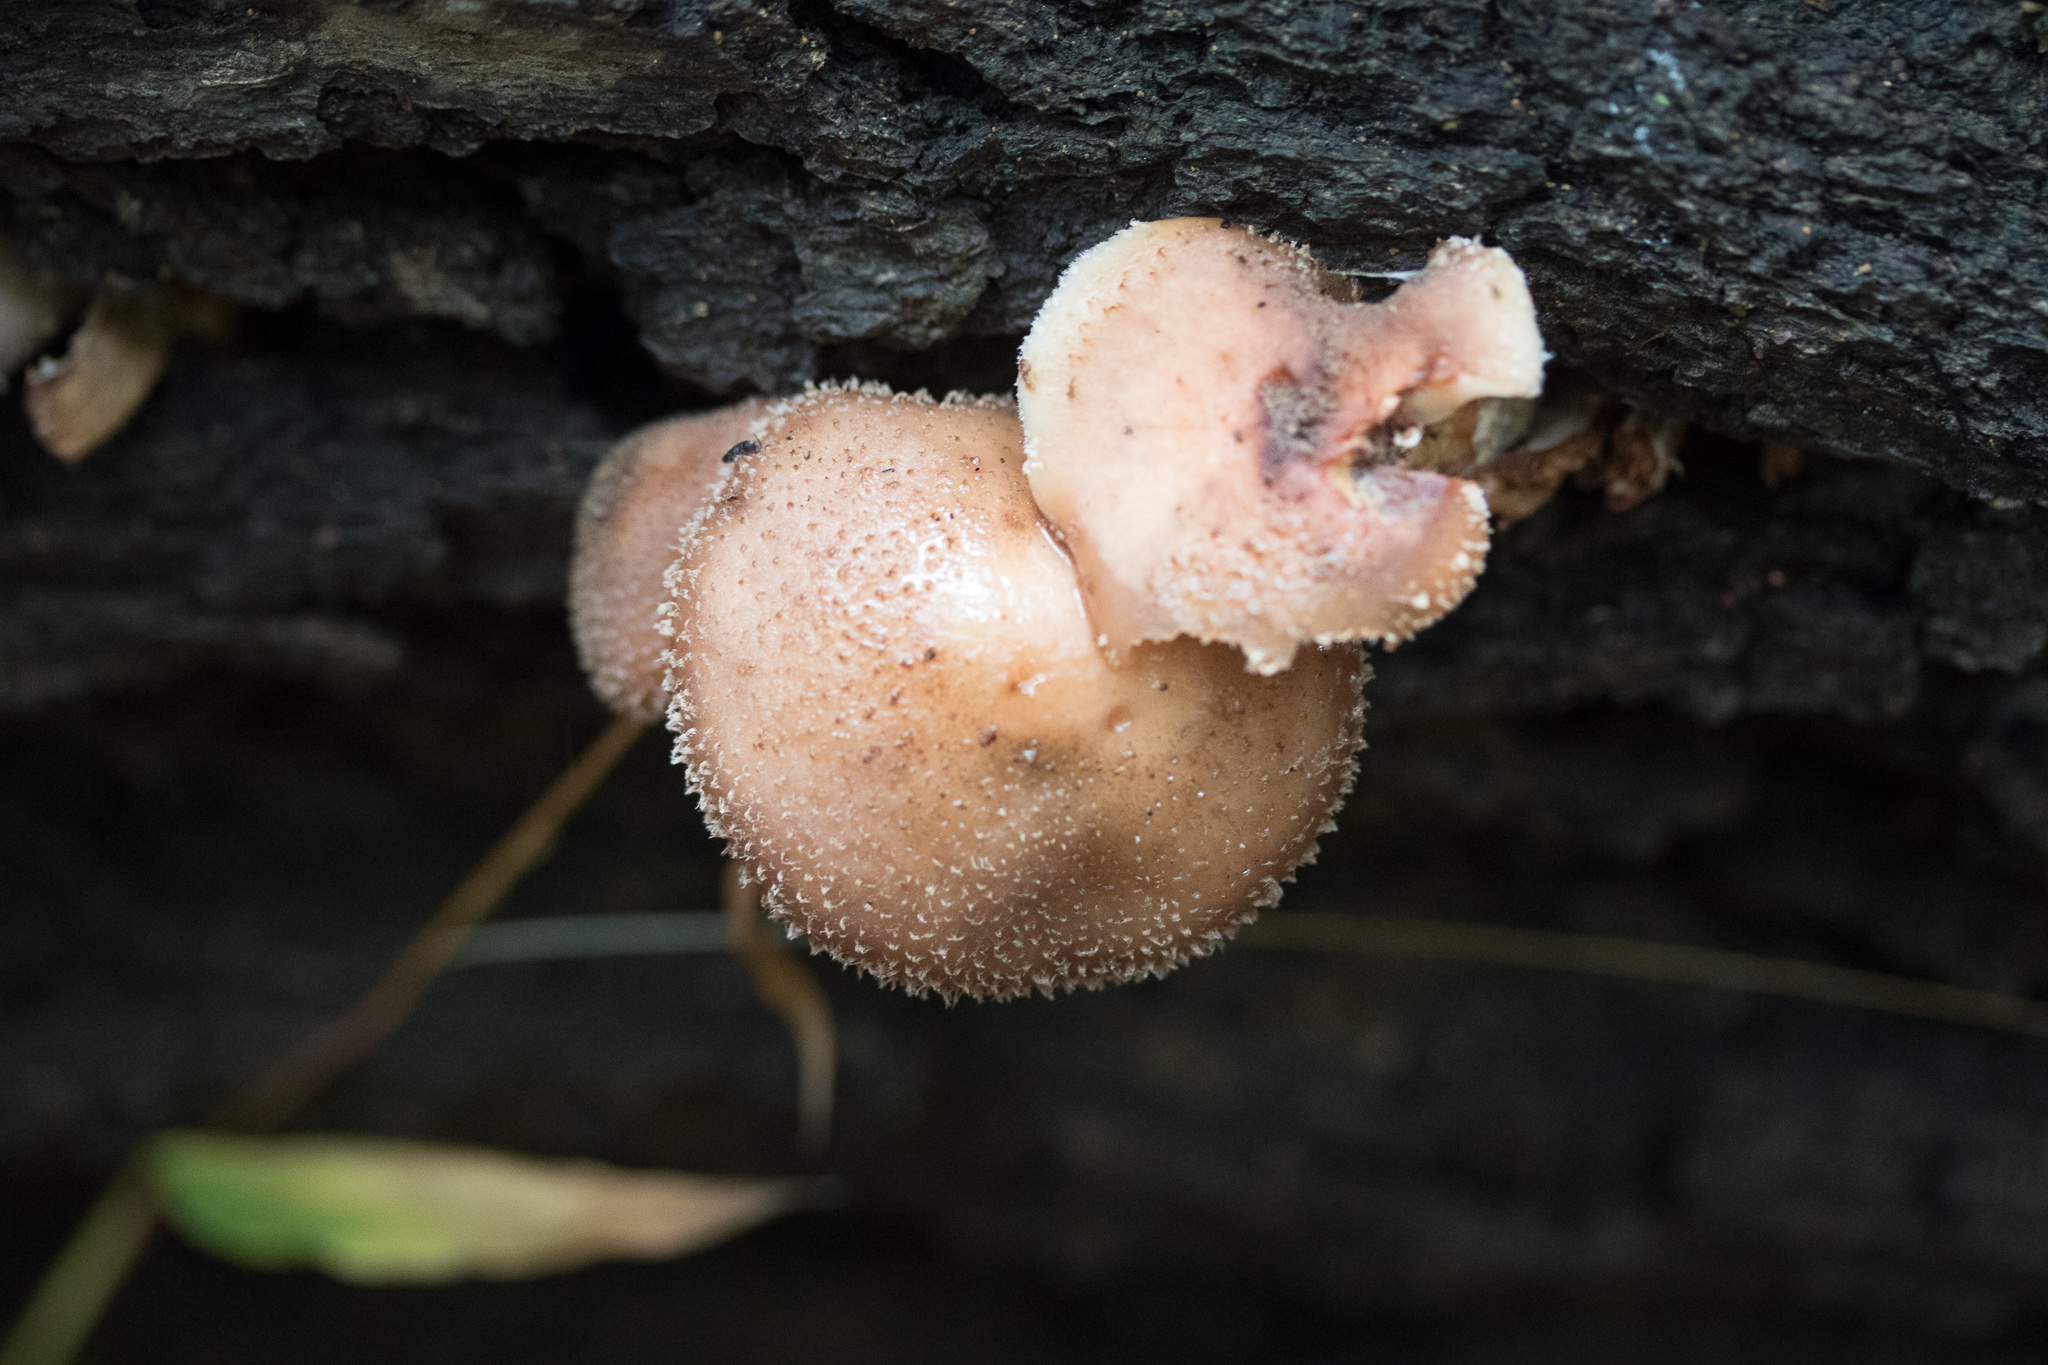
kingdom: Fungi
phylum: Basidiomycota
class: Agaricomycetes
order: Agaricales
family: Physalacriaceae
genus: Armillaria
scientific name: Armillaria gallica
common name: Bulbous honey fungus
